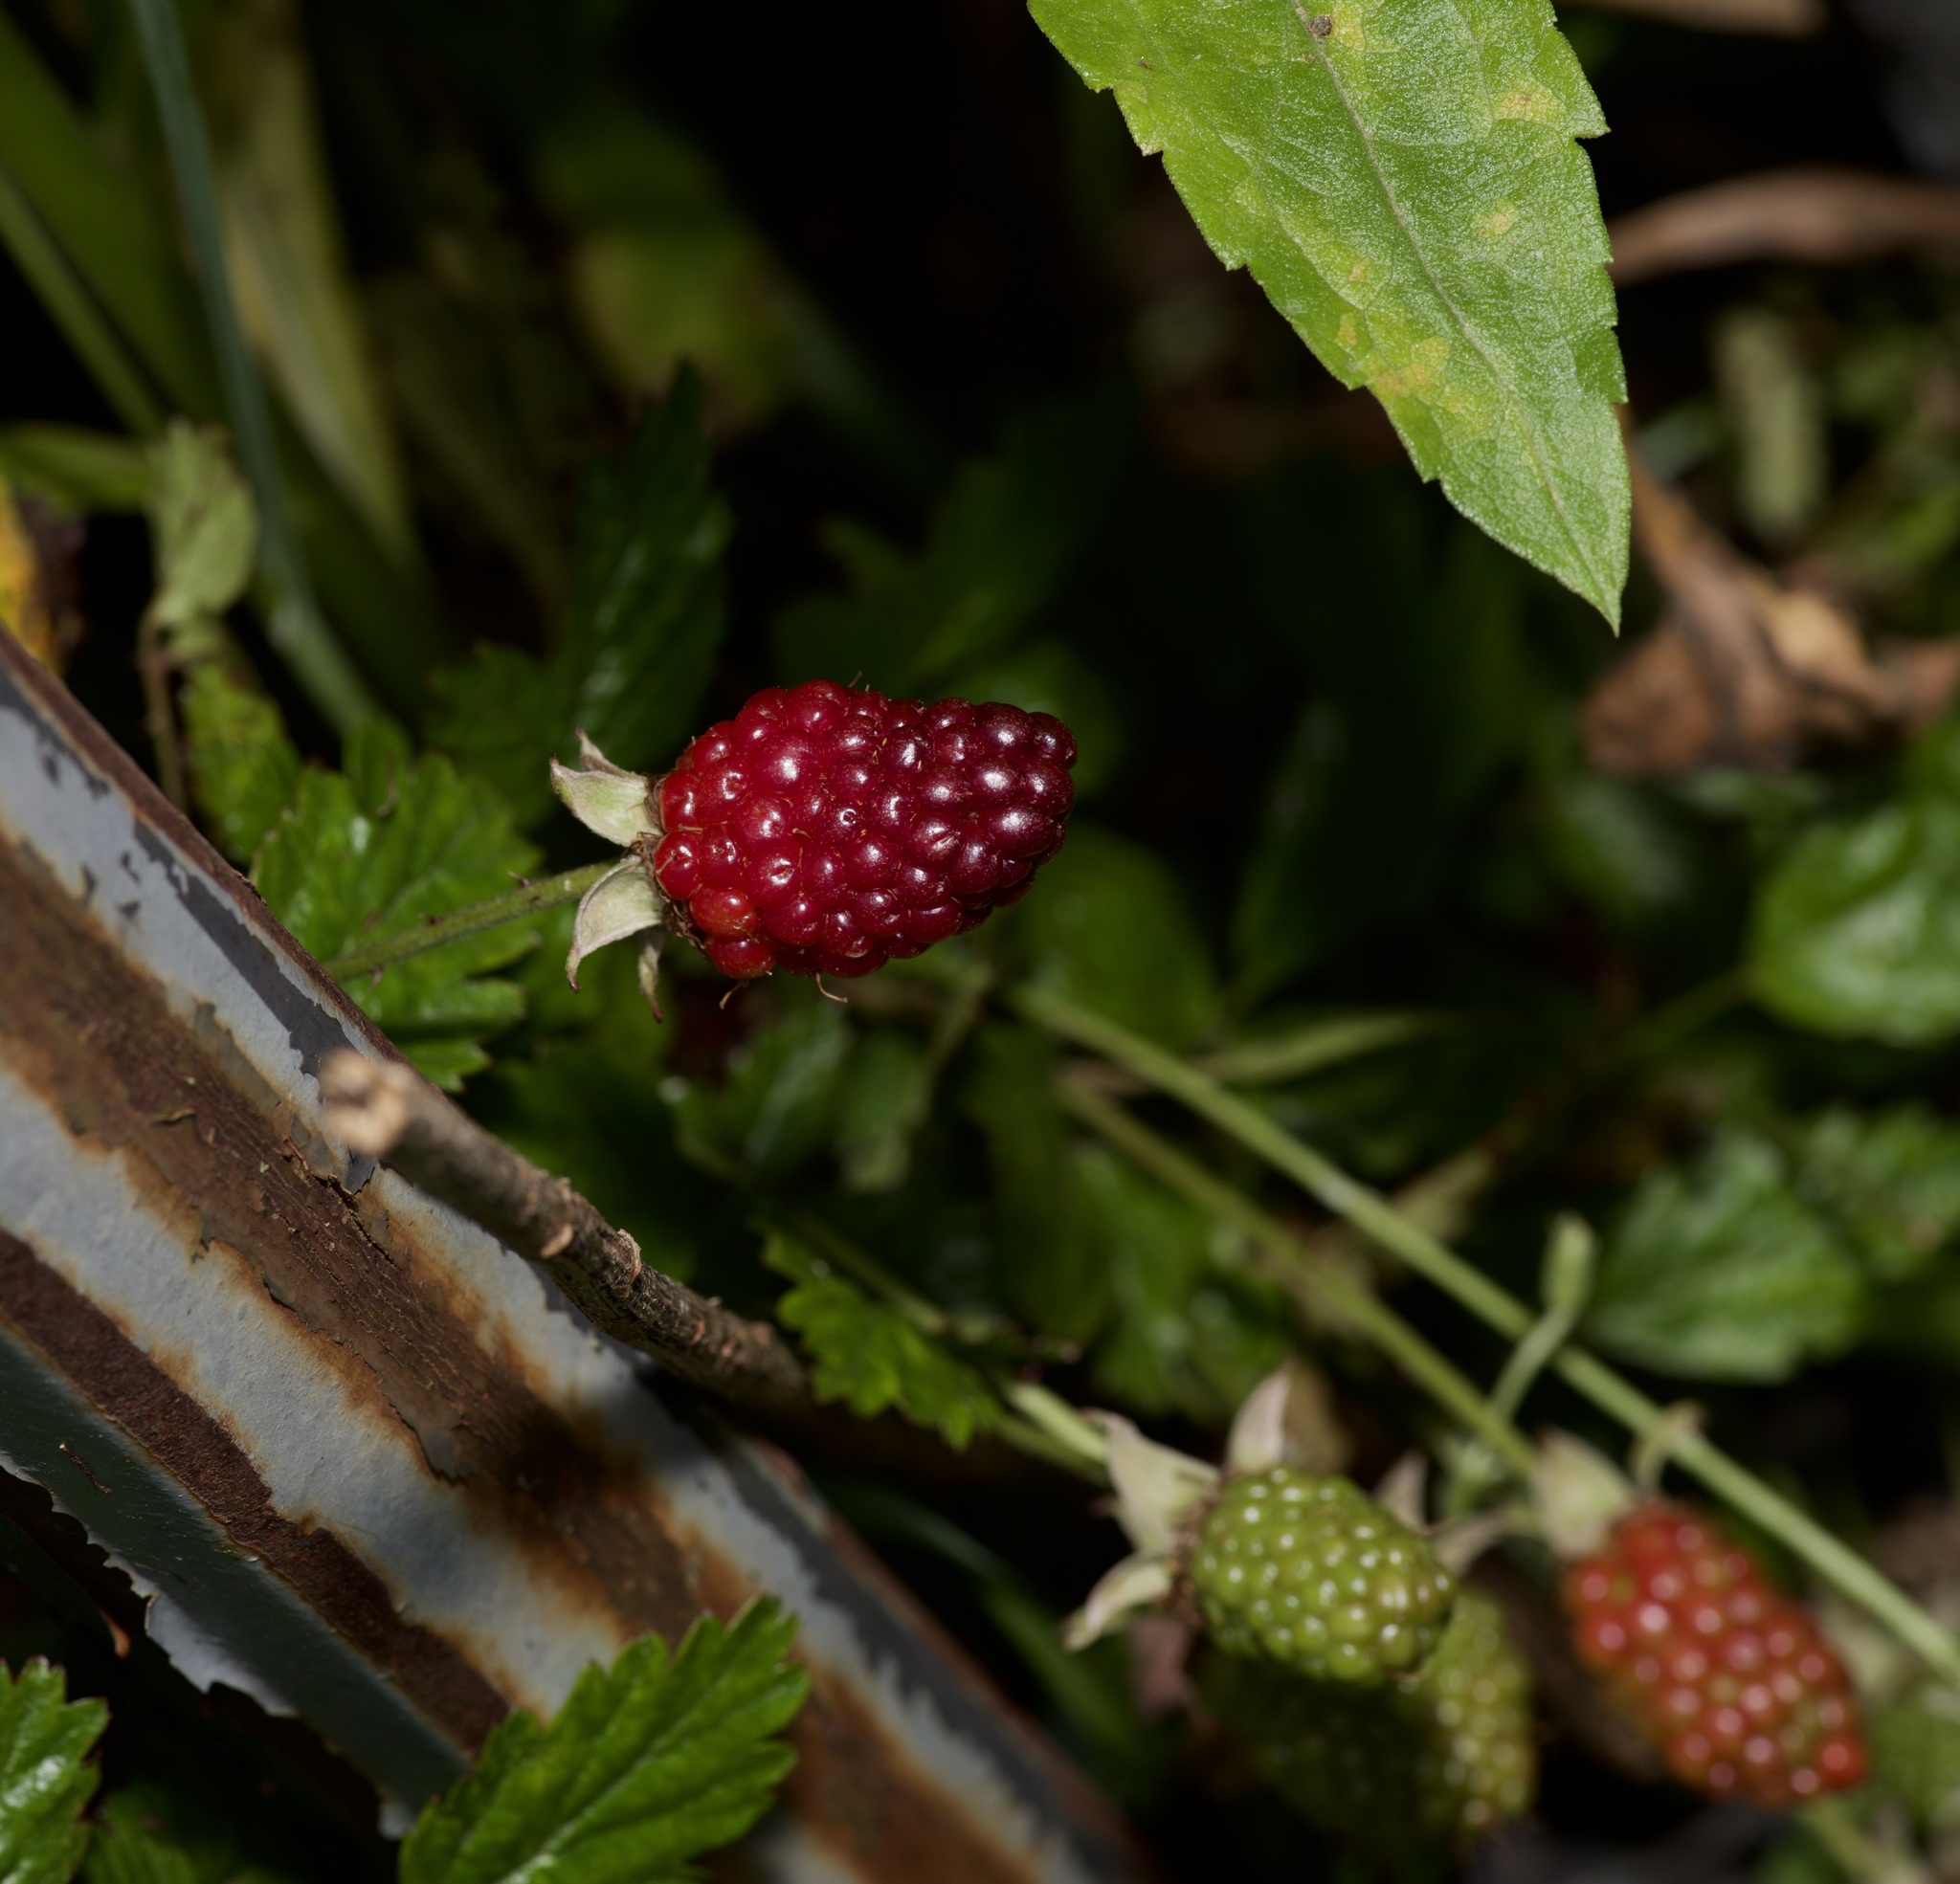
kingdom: Plantae
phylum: Tracheophyta
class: Magnoliopsida
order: Rosales
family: Rosaceae
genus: Rubus
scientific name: Rubus trivialis
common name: Southern dewberry
